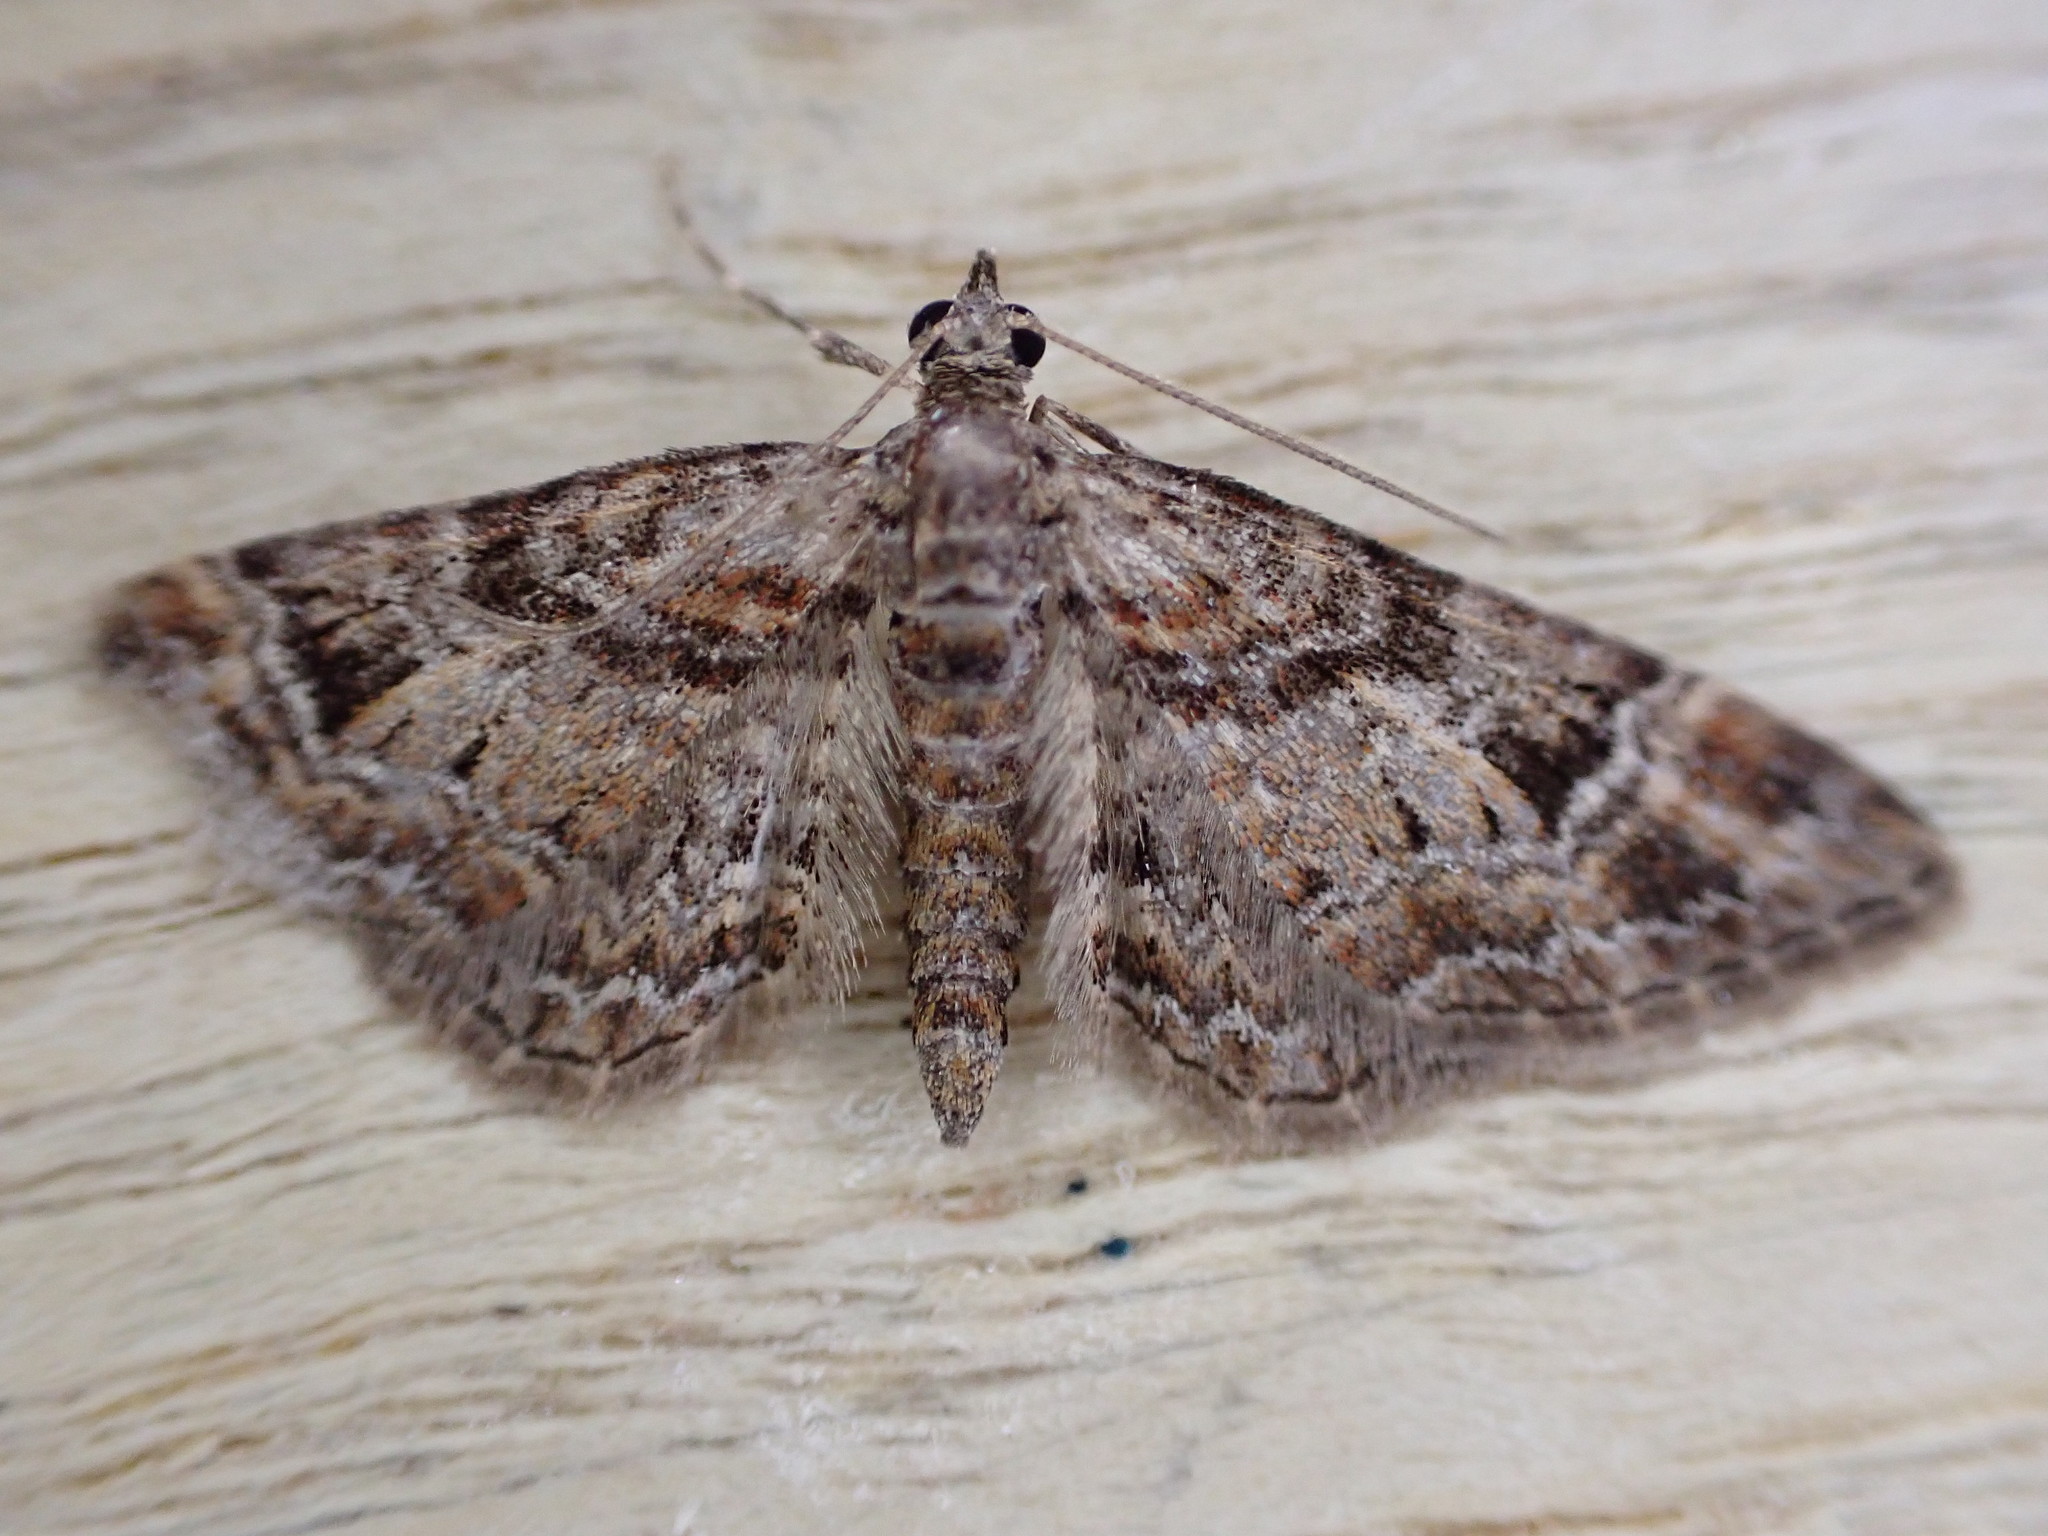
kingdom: Animalia
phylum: Arthropoda
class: Insecta
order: Lepidoptera
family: Geometridae
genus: Gymnoscelis
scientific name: Gymnoscelis rufifasciata
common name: Double-striped pug
